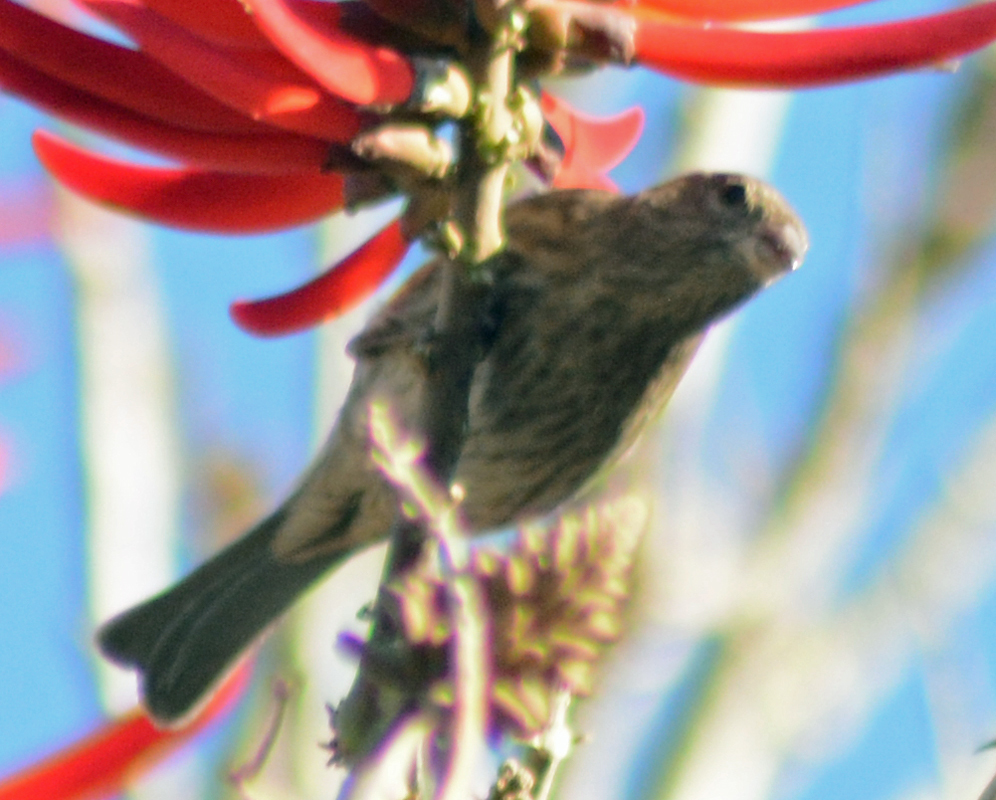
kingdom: Animalia
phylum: Chordata
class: Aves
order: Passeriformes
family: Fringillidae
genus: Haemorhous
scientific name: Haemorhous mexicanus
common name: House finch
